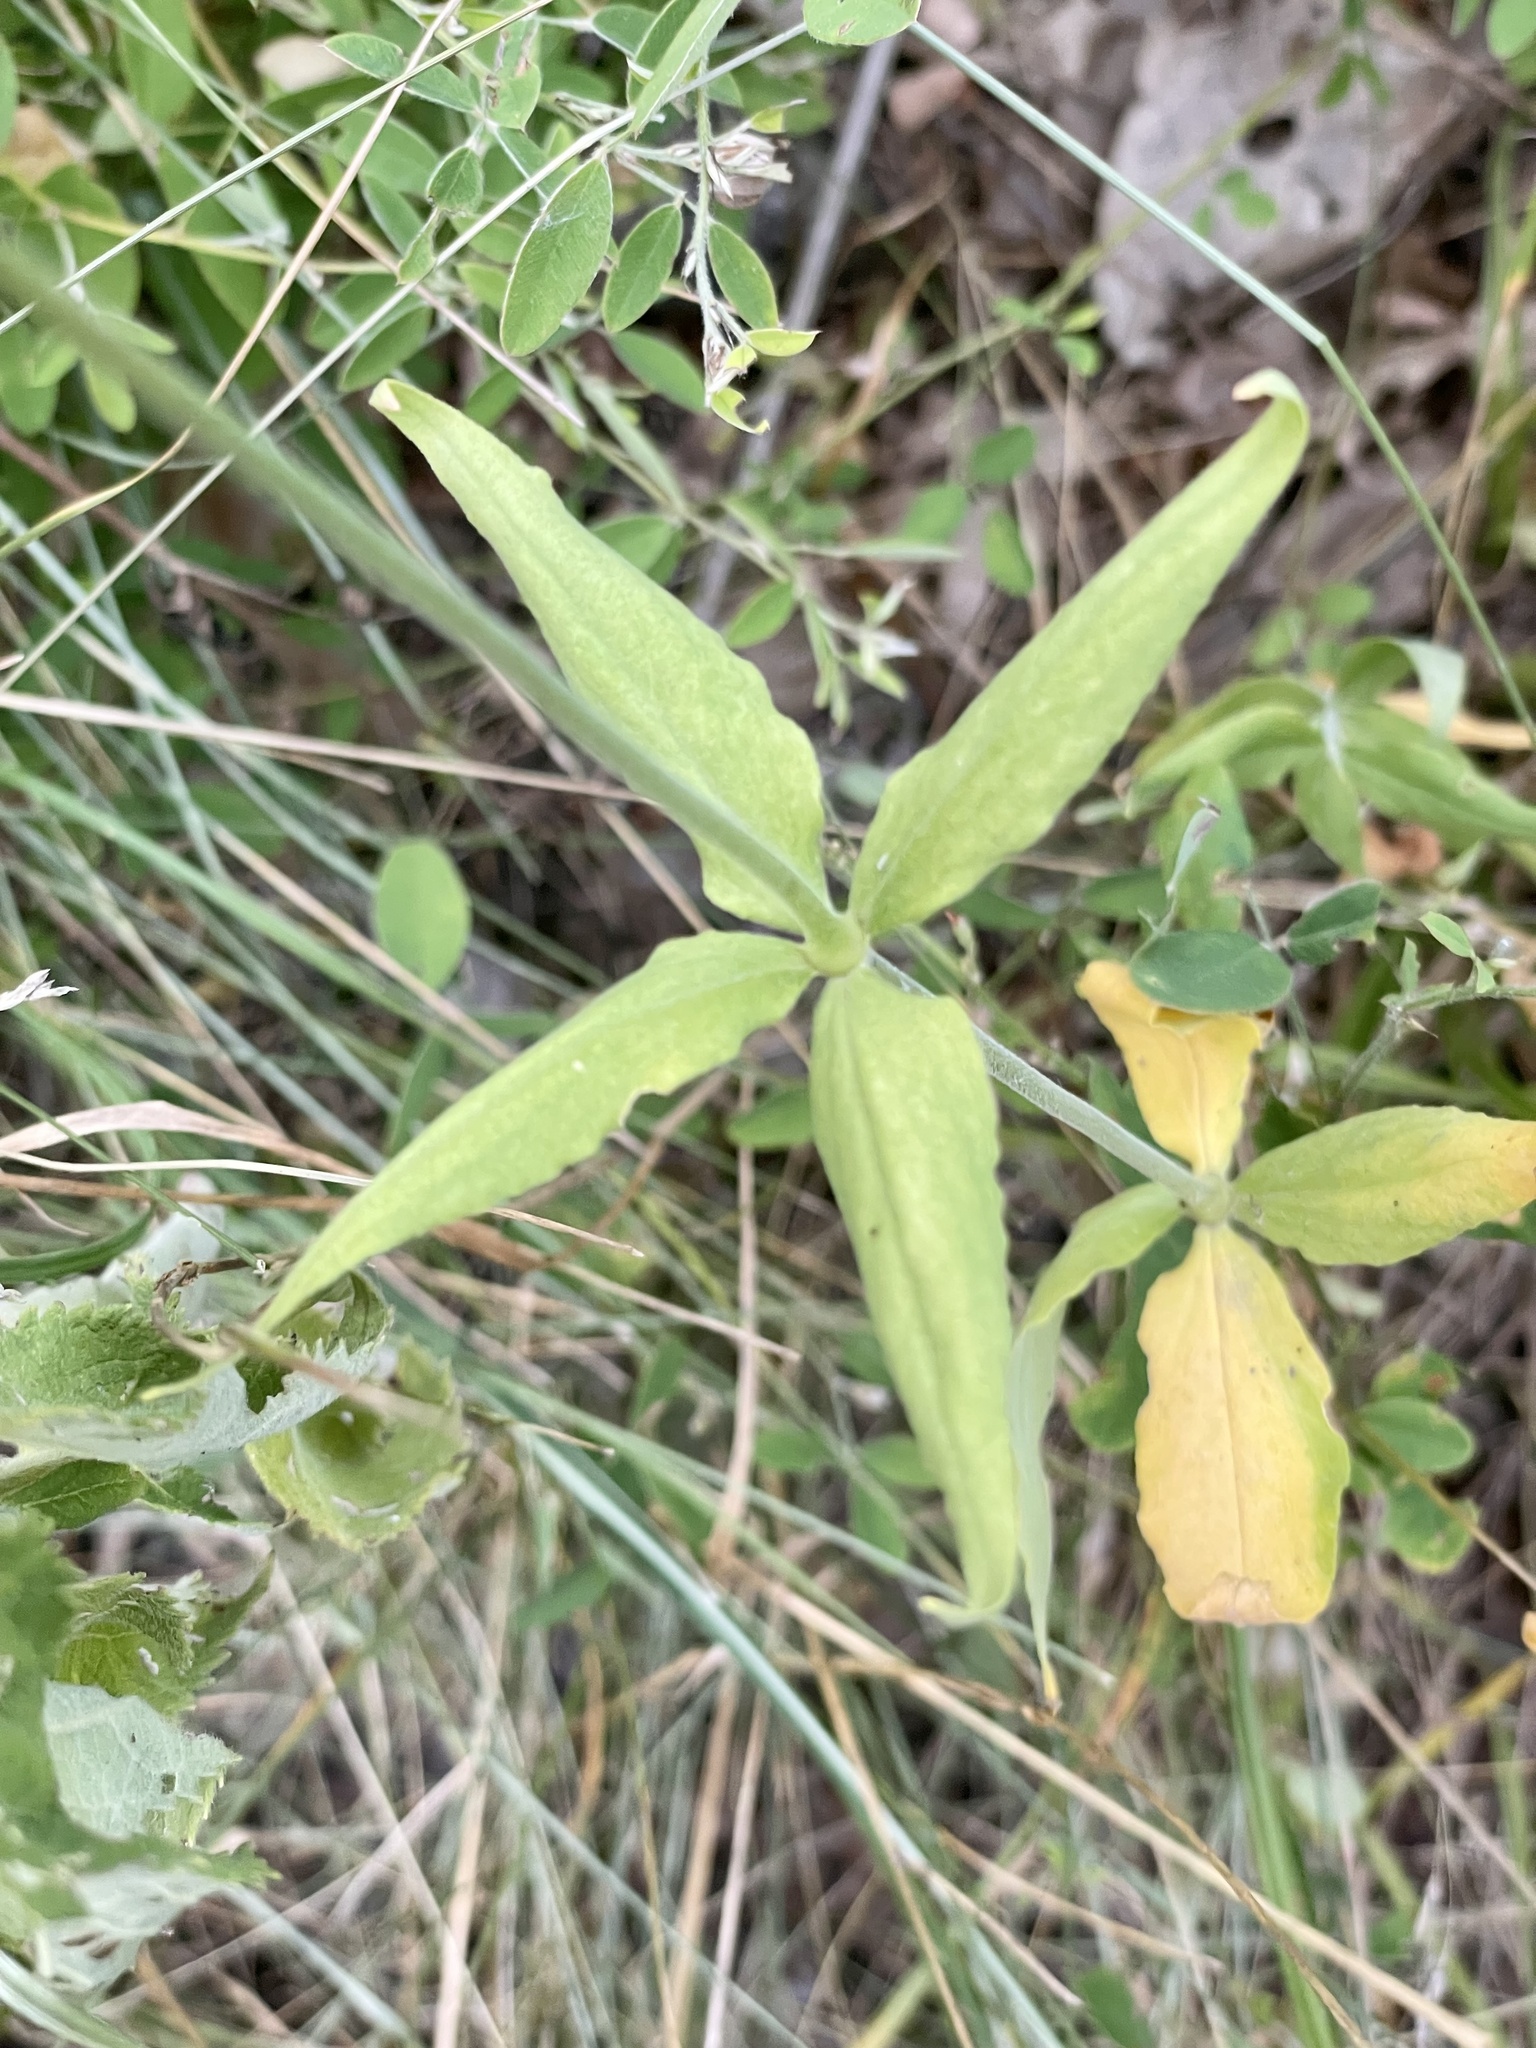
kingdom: Plantae
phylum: Tracheophyta
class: Magnoliopsida
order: Caryophyllales
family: Caryophyllaceae
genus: Silene
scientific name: Silene stellata
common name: Starry campion
